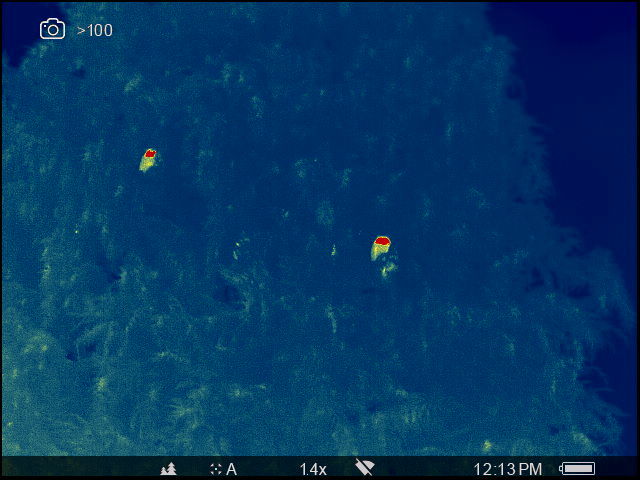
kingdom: Animalia
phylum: Chordata
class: Aves
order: Strigiformes
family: Strigidae
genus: Asio
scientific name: Asio otus
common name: Long-eared owl
